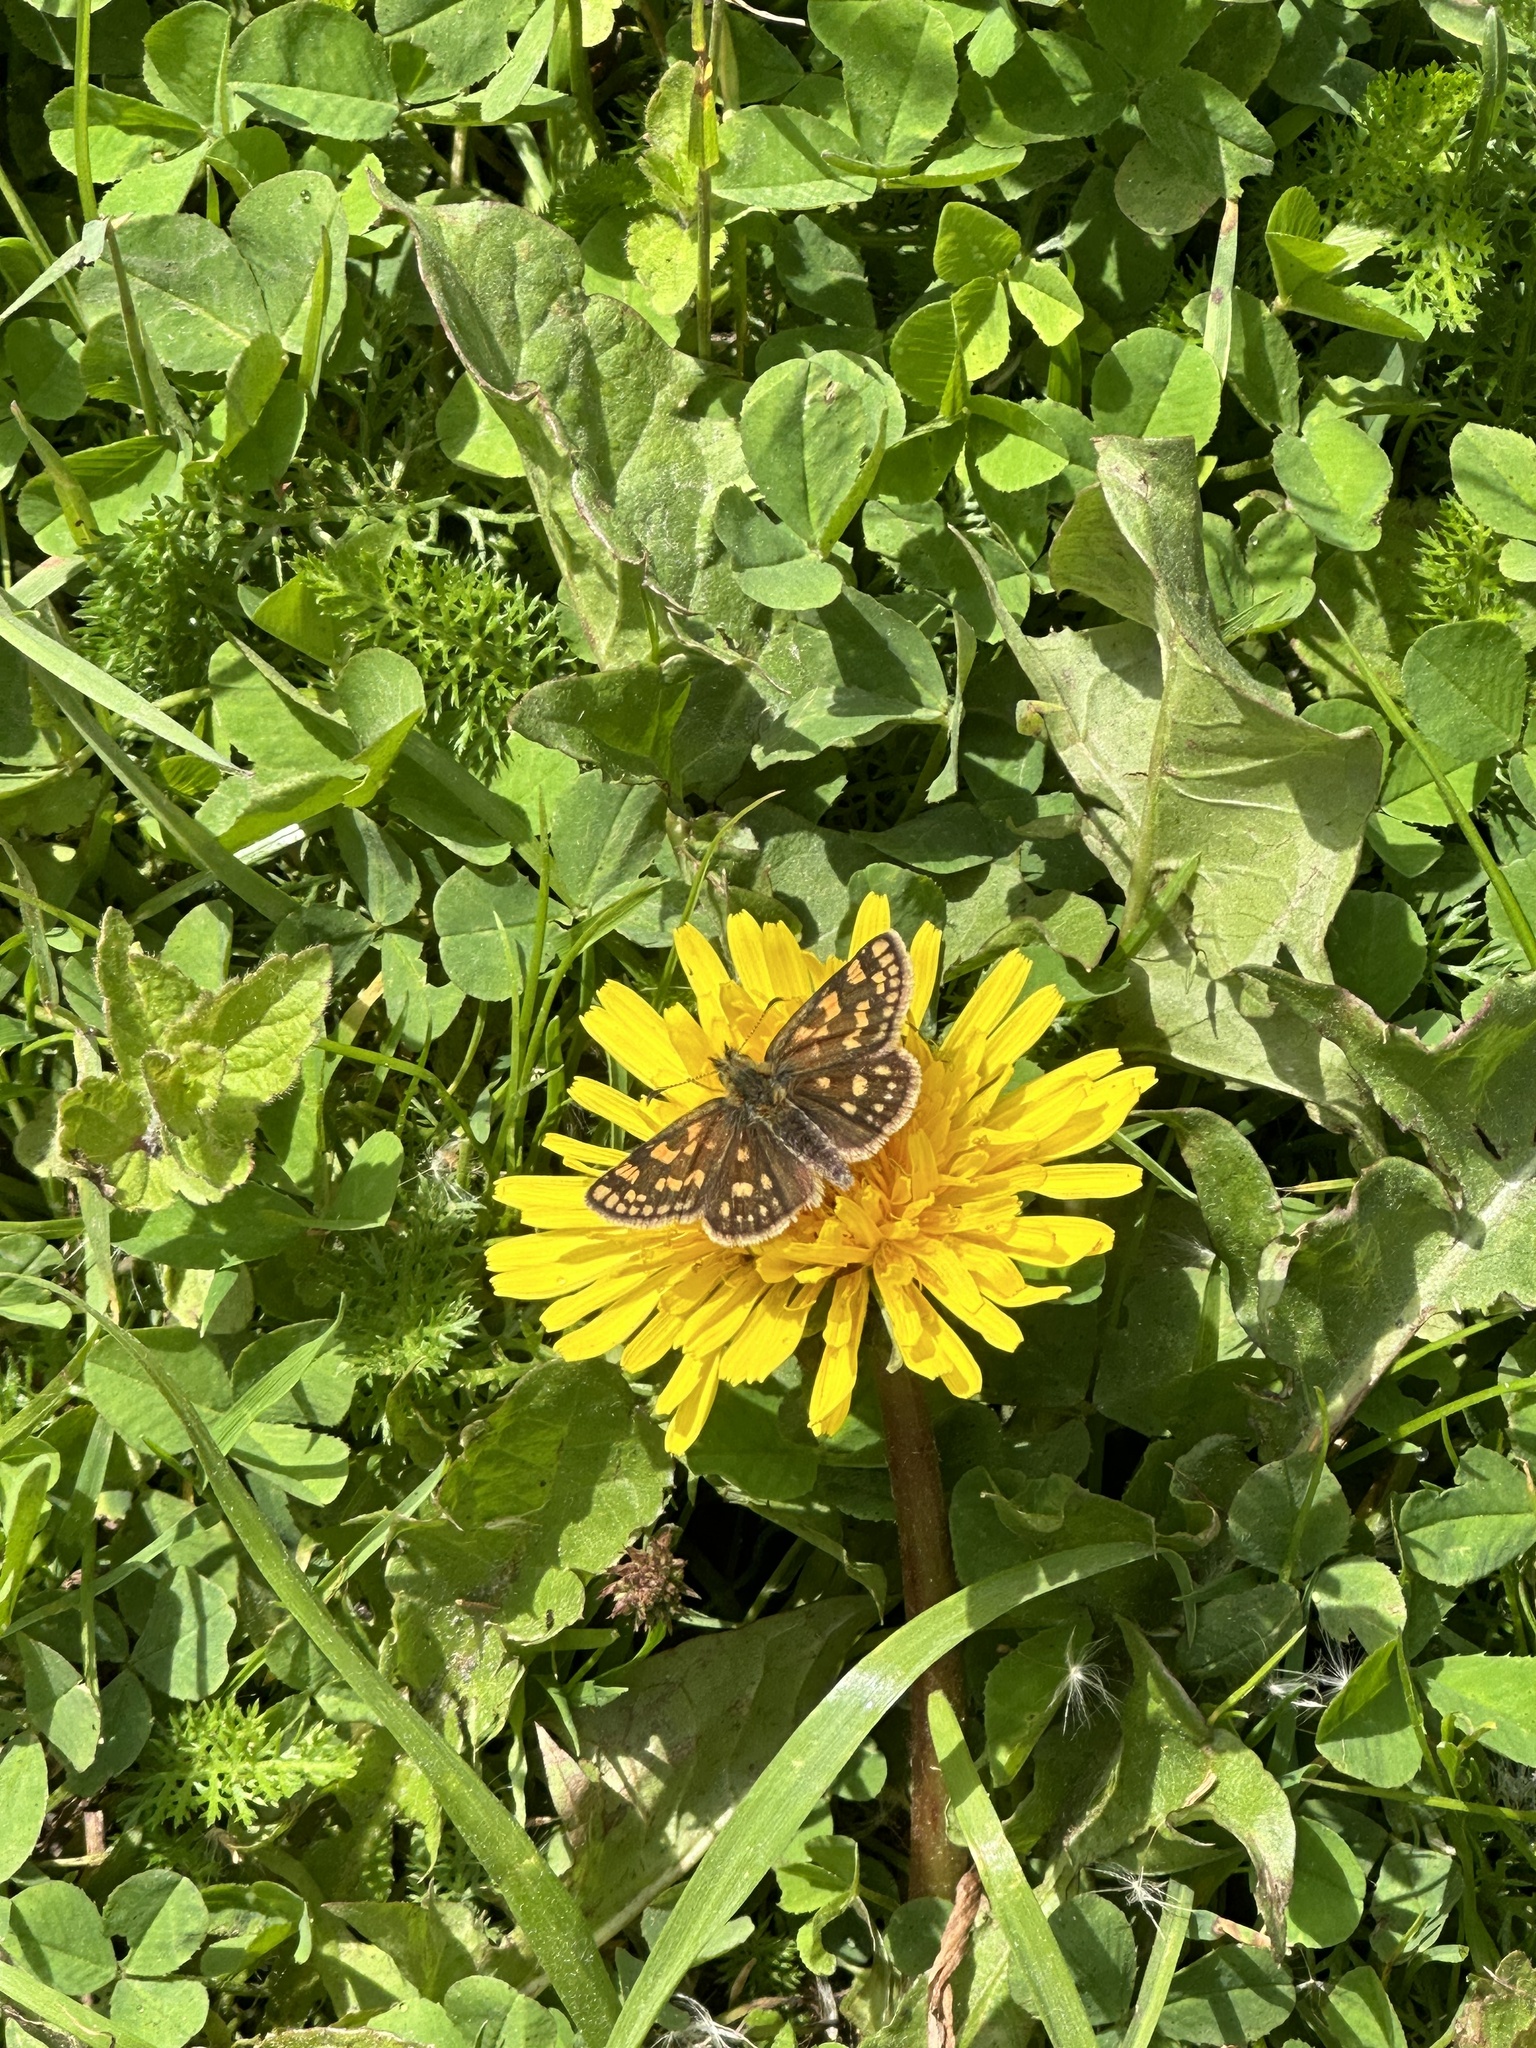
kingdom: Animalia
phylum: Arthropoda
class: Insecta
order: Lepidoptera
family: Hesperiidae
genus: Carterocephalus
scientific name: Carterocephalus palaemon
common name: Chequered skipper
